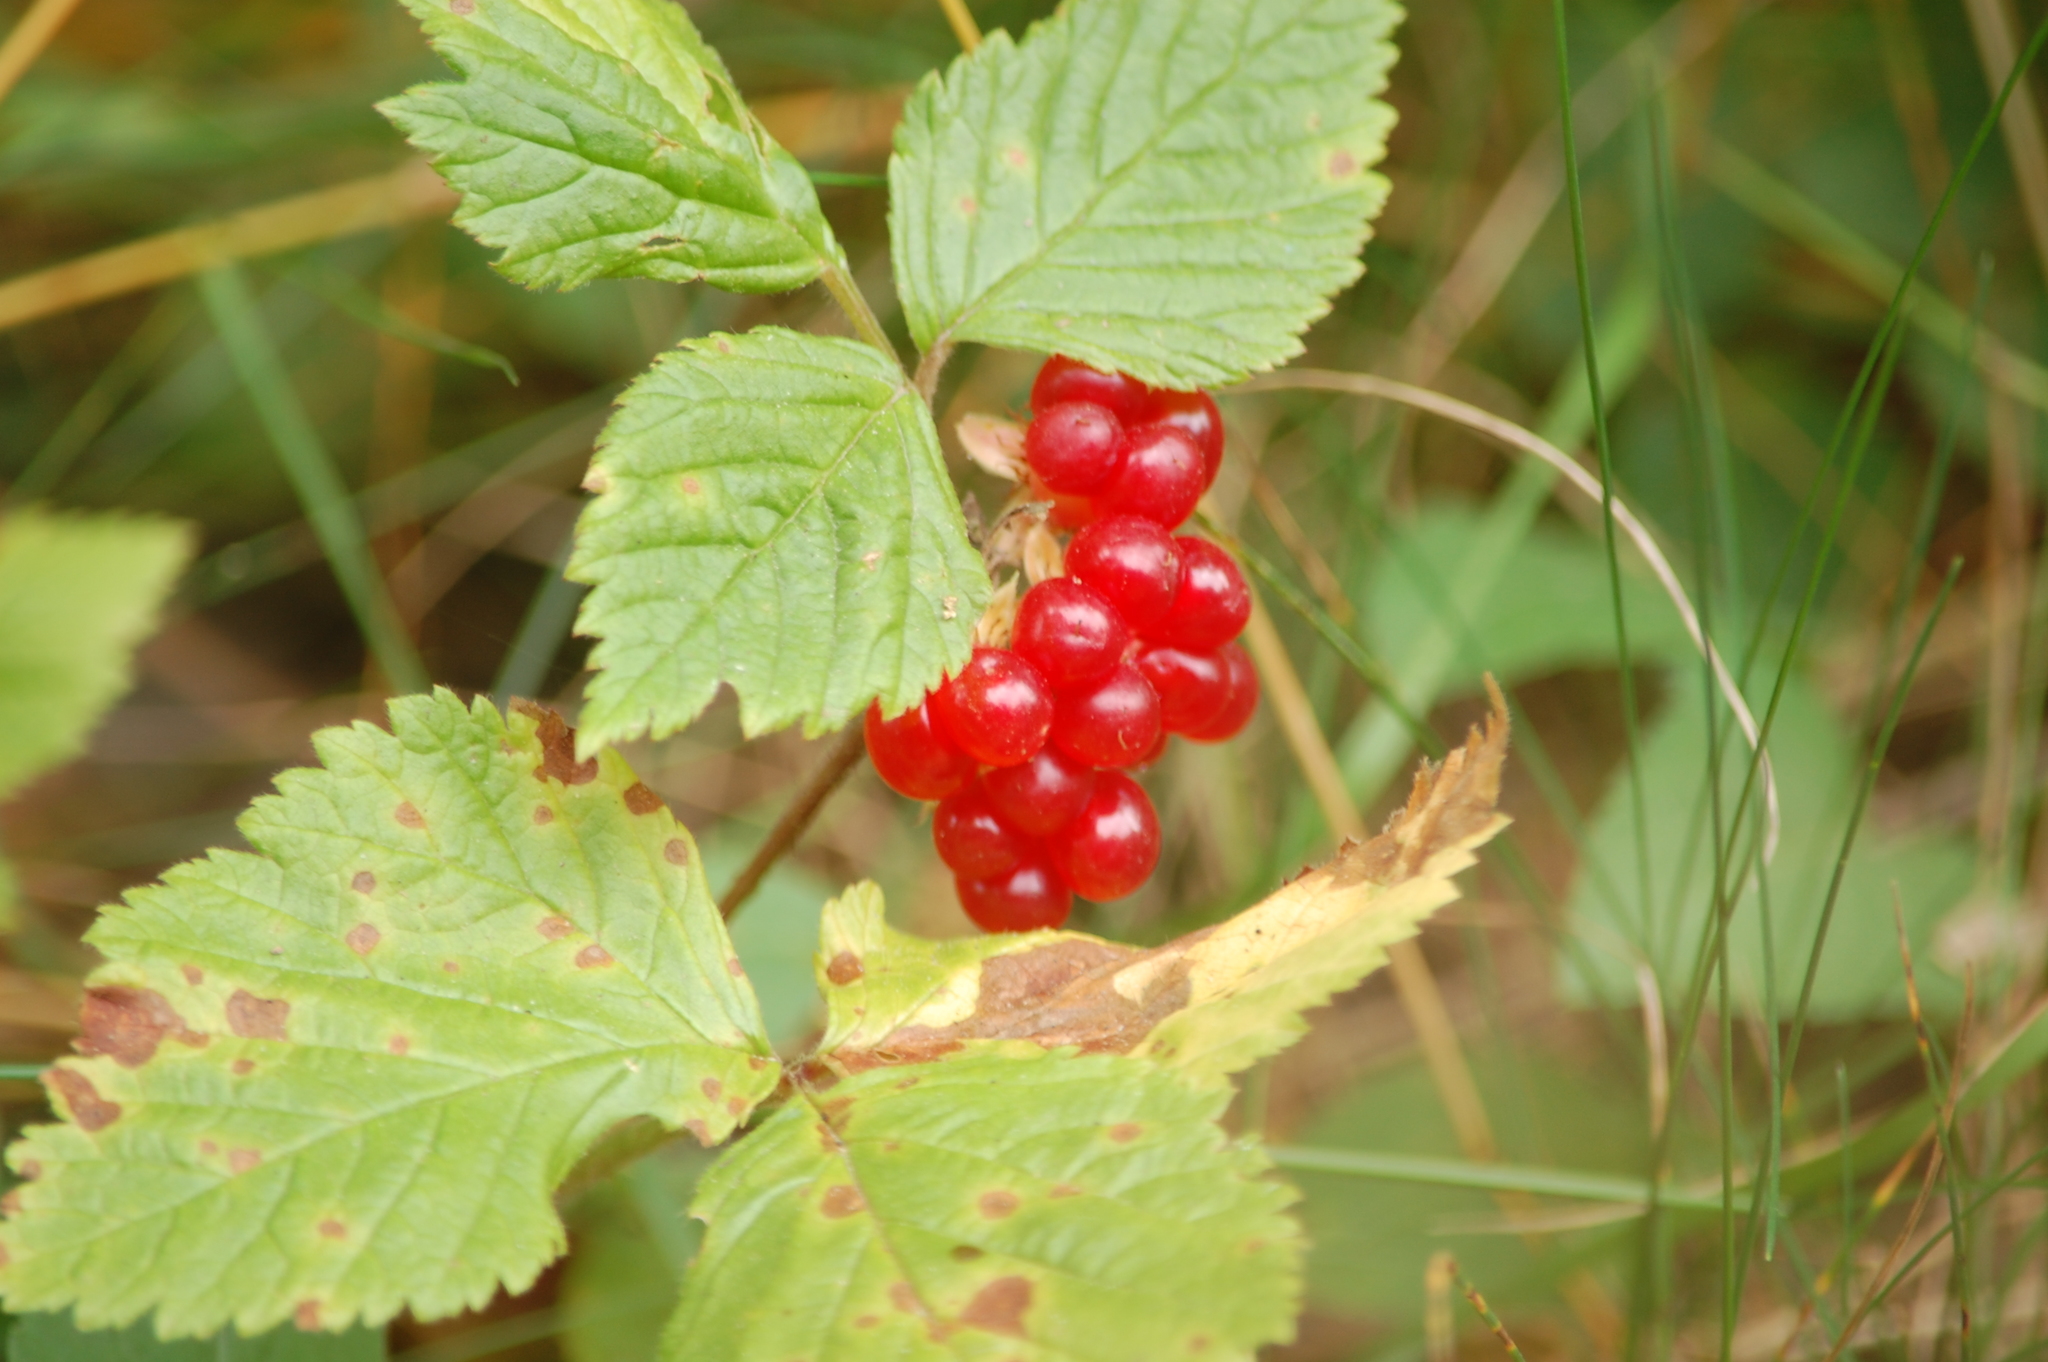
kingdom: Plantae
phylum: Tracheophyta
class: Magnoliopsida
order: Rosales
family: Rosaceae
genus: Rubus
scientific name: Rubus saxatilis
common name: Stone bramble
